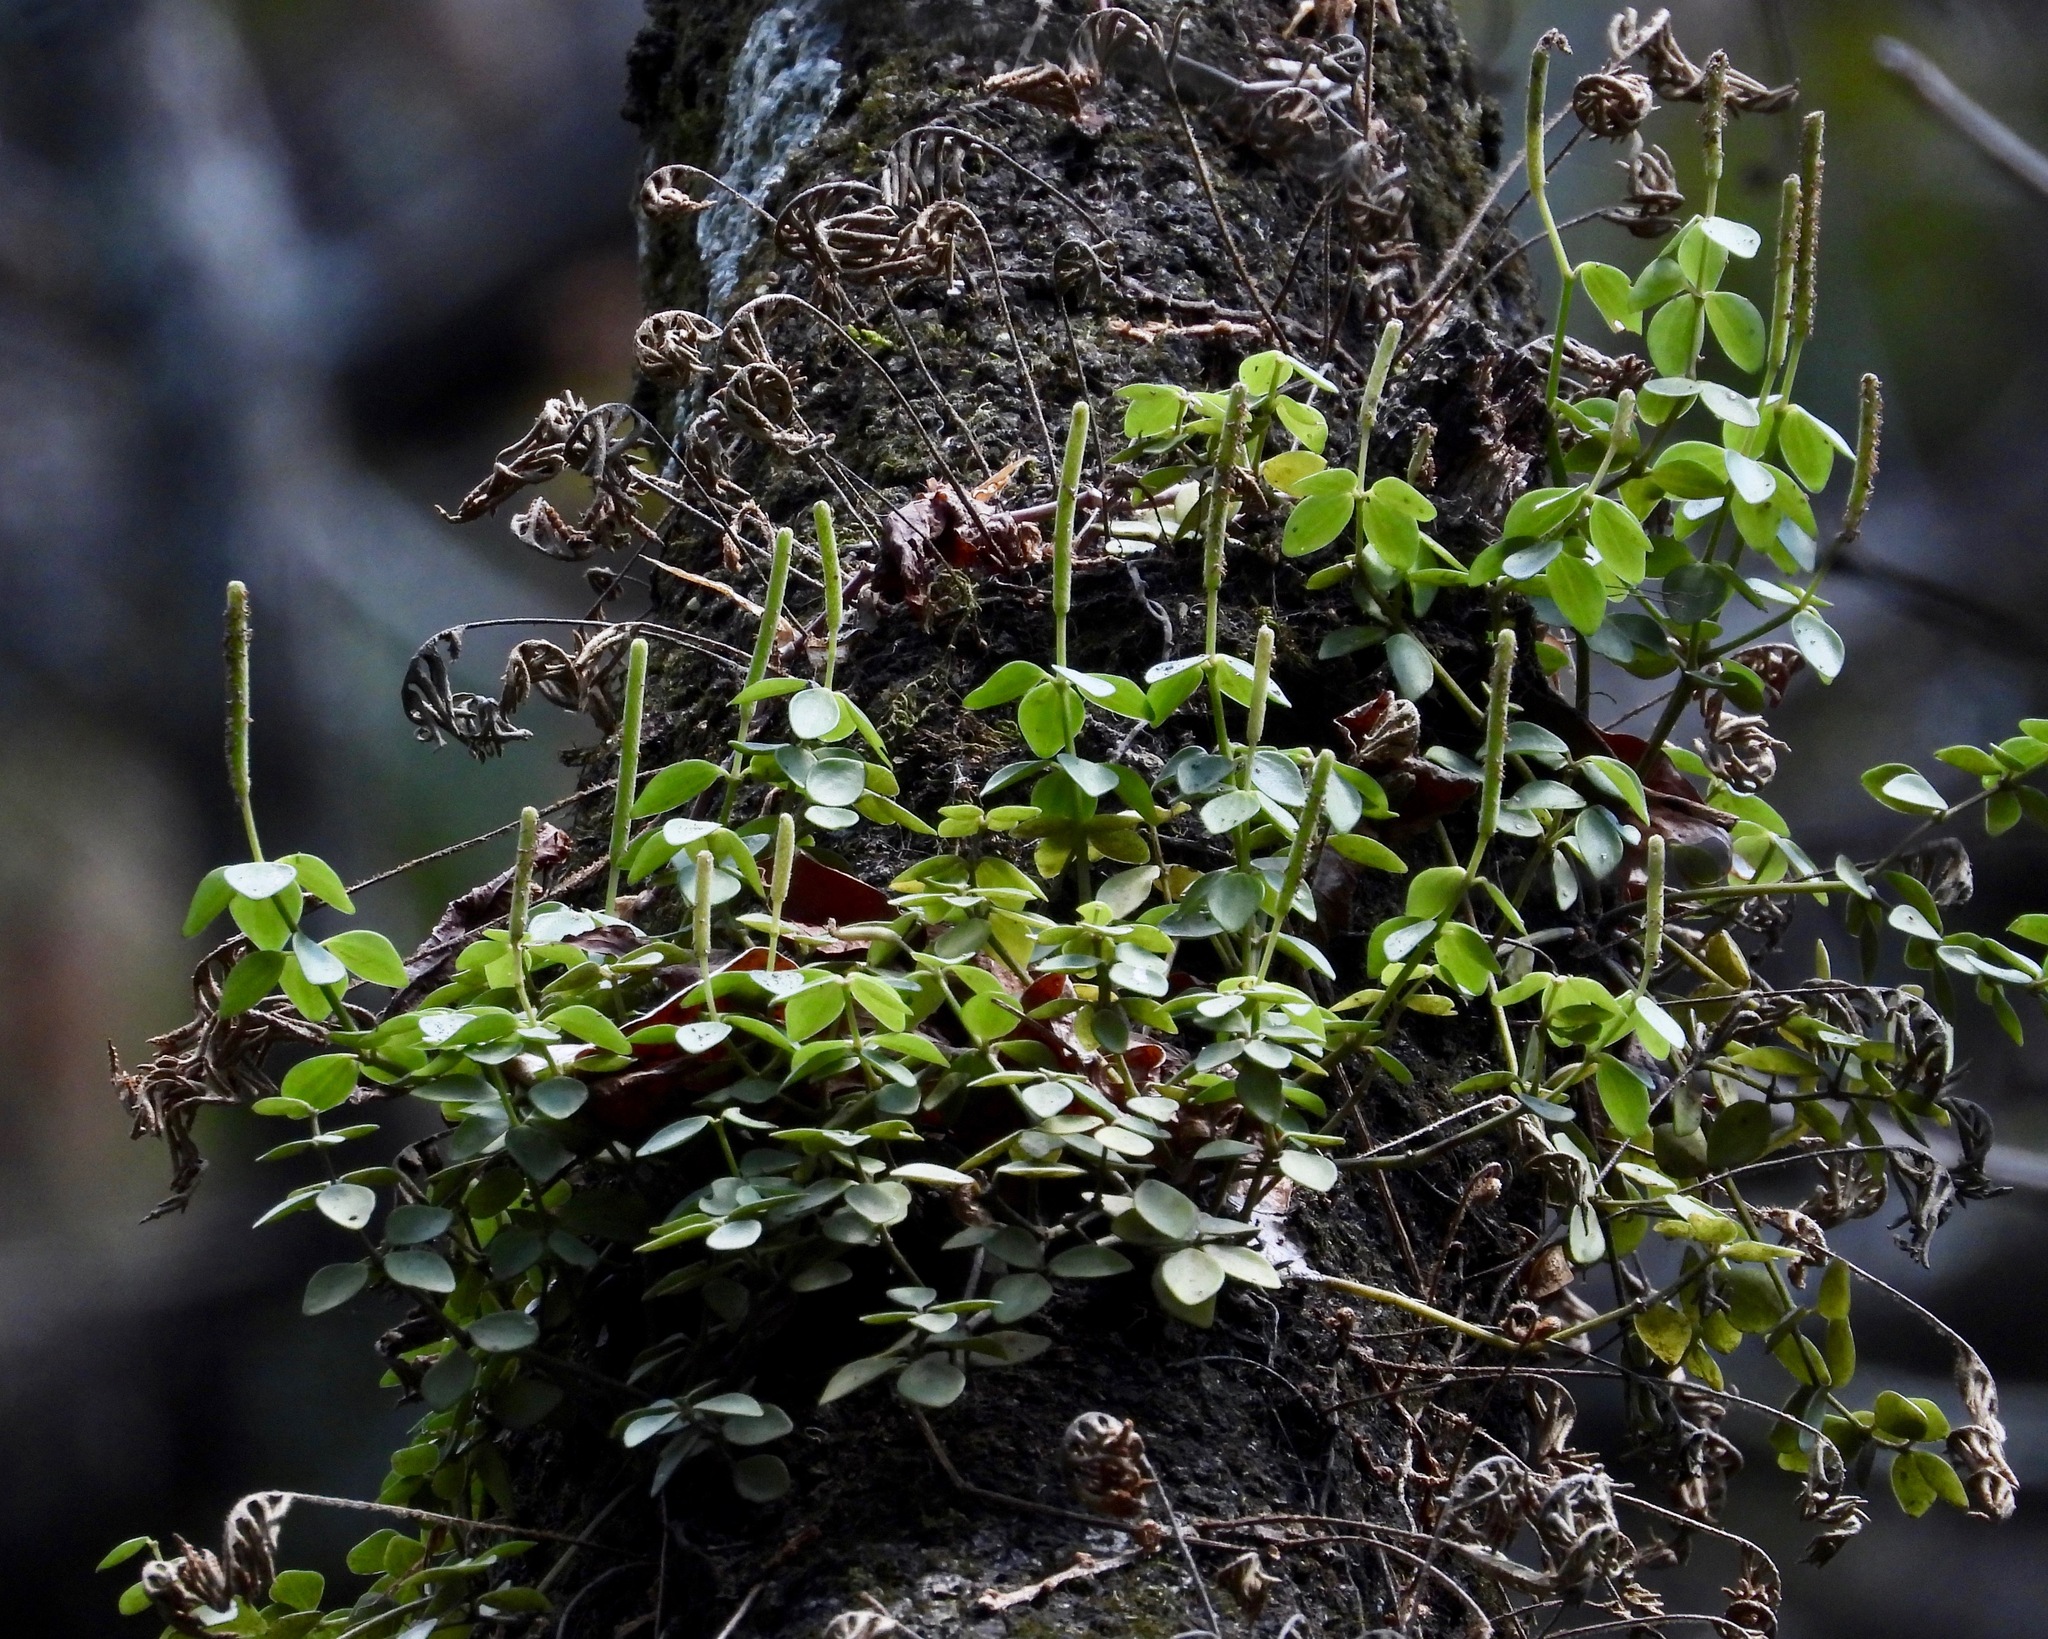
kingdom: Plantae
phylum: Tracheophyta
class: Magnoliopsida
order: Piperales
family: Piperaceae
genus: Peperomia
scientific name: Peperomia tetraphylla
